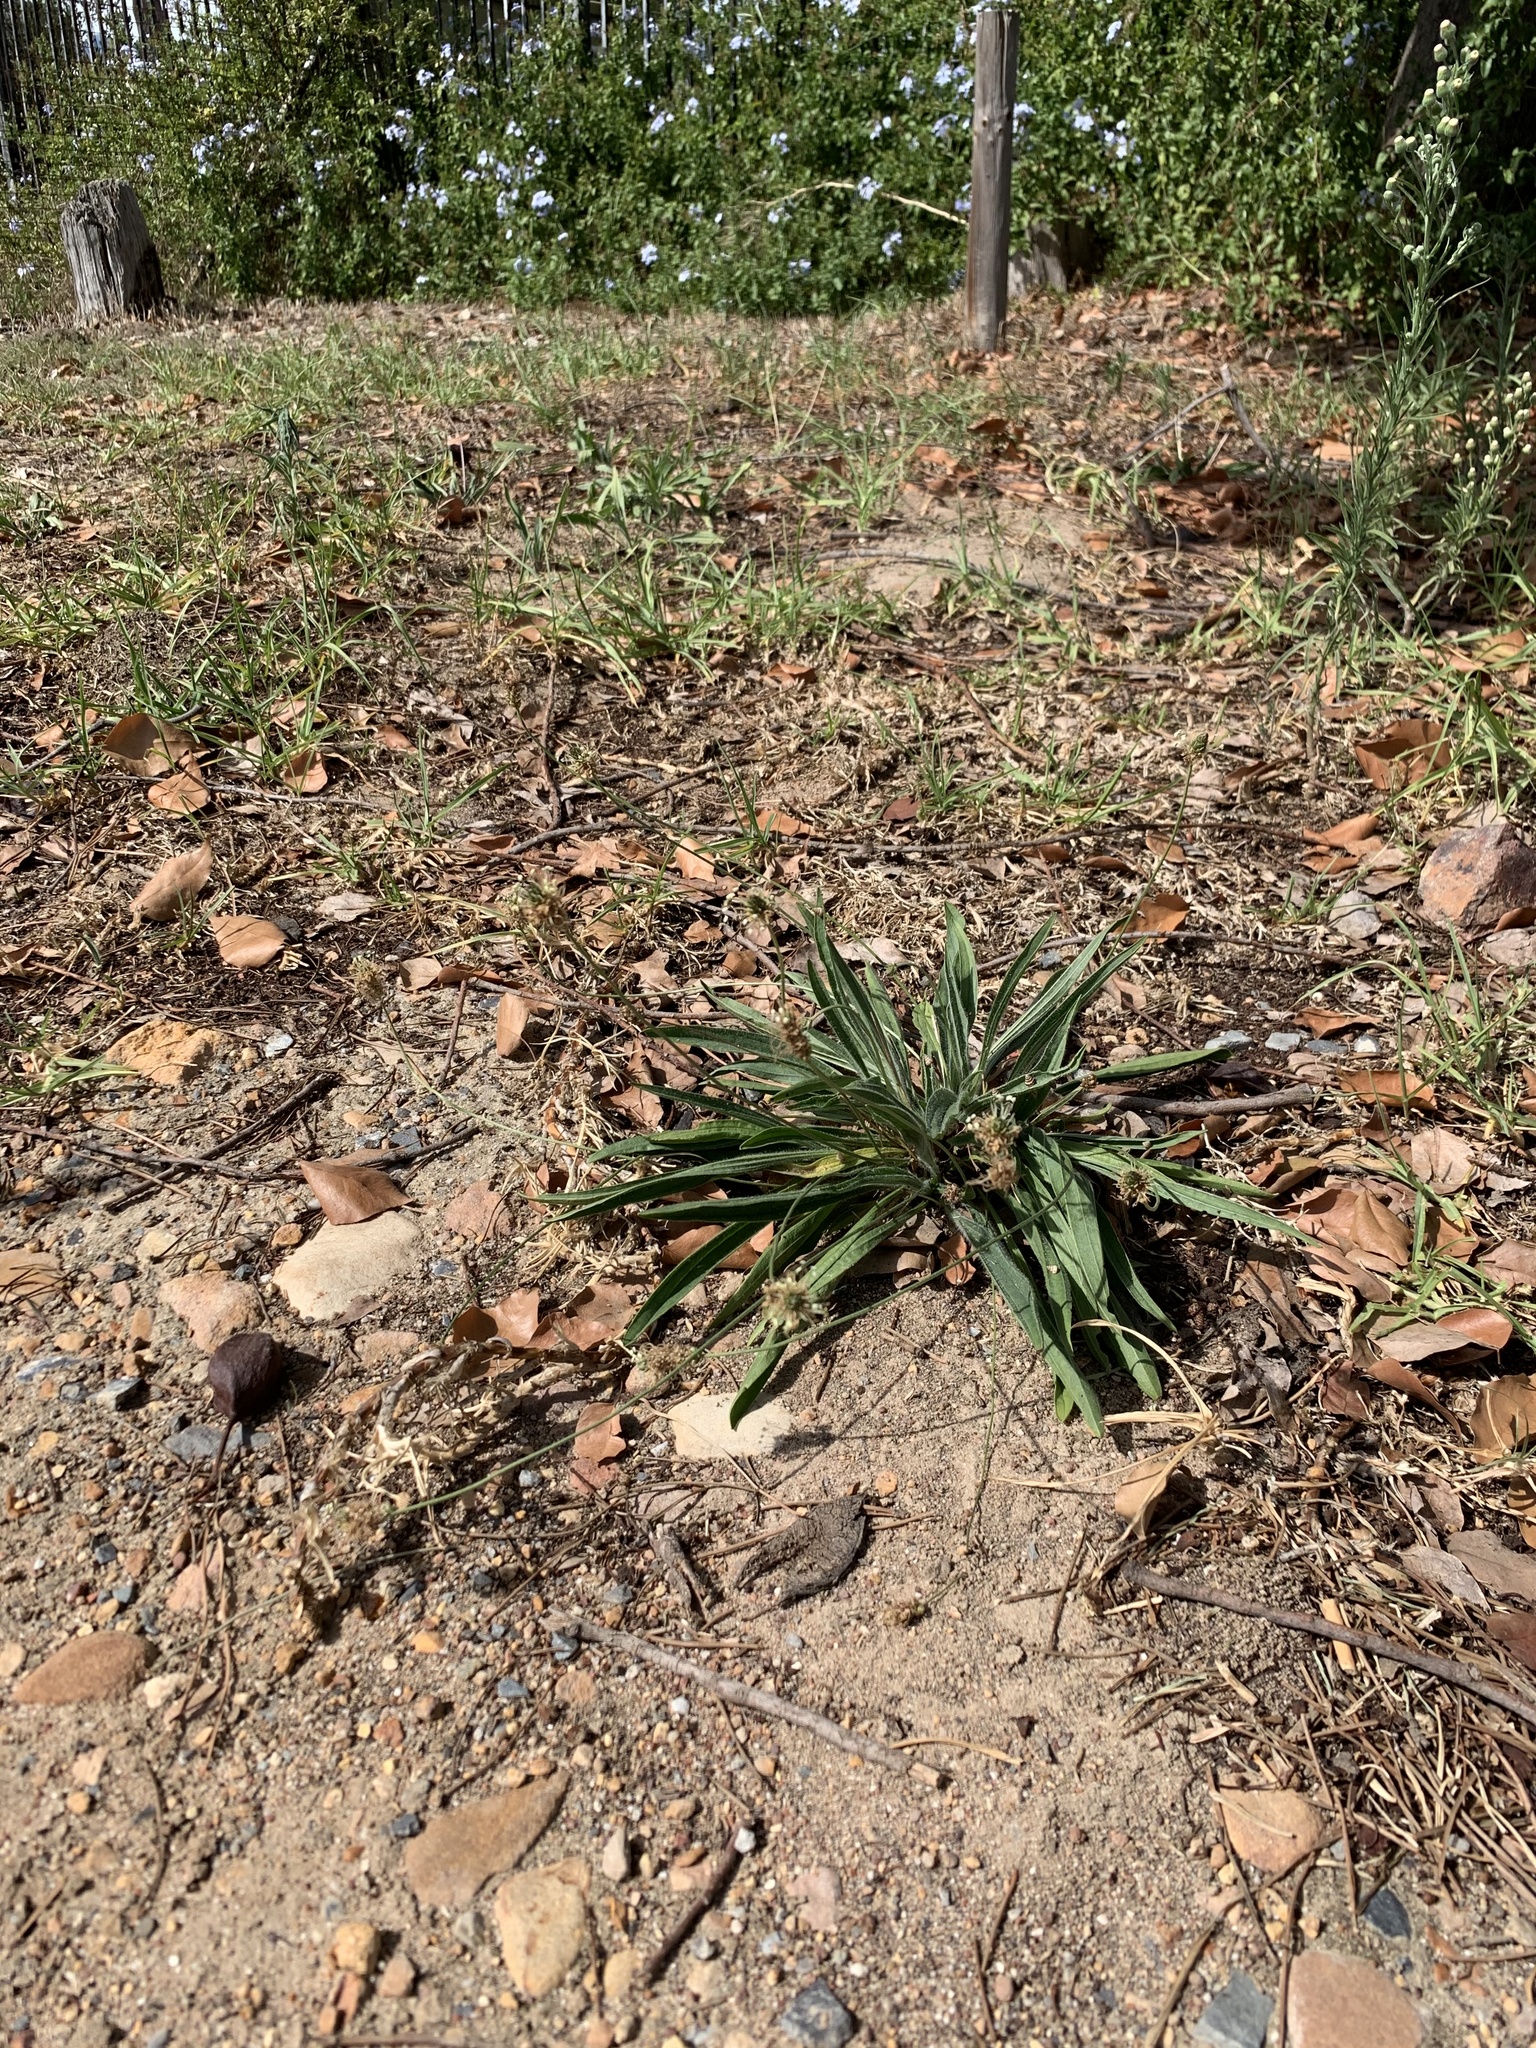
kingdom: Plantae
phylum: Tracheophyta
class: Magnoliopsida
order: Lamiales
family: Plantaginaceae
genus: Plantago
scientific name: Plantago lanceolata
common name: Ribwort plantain
